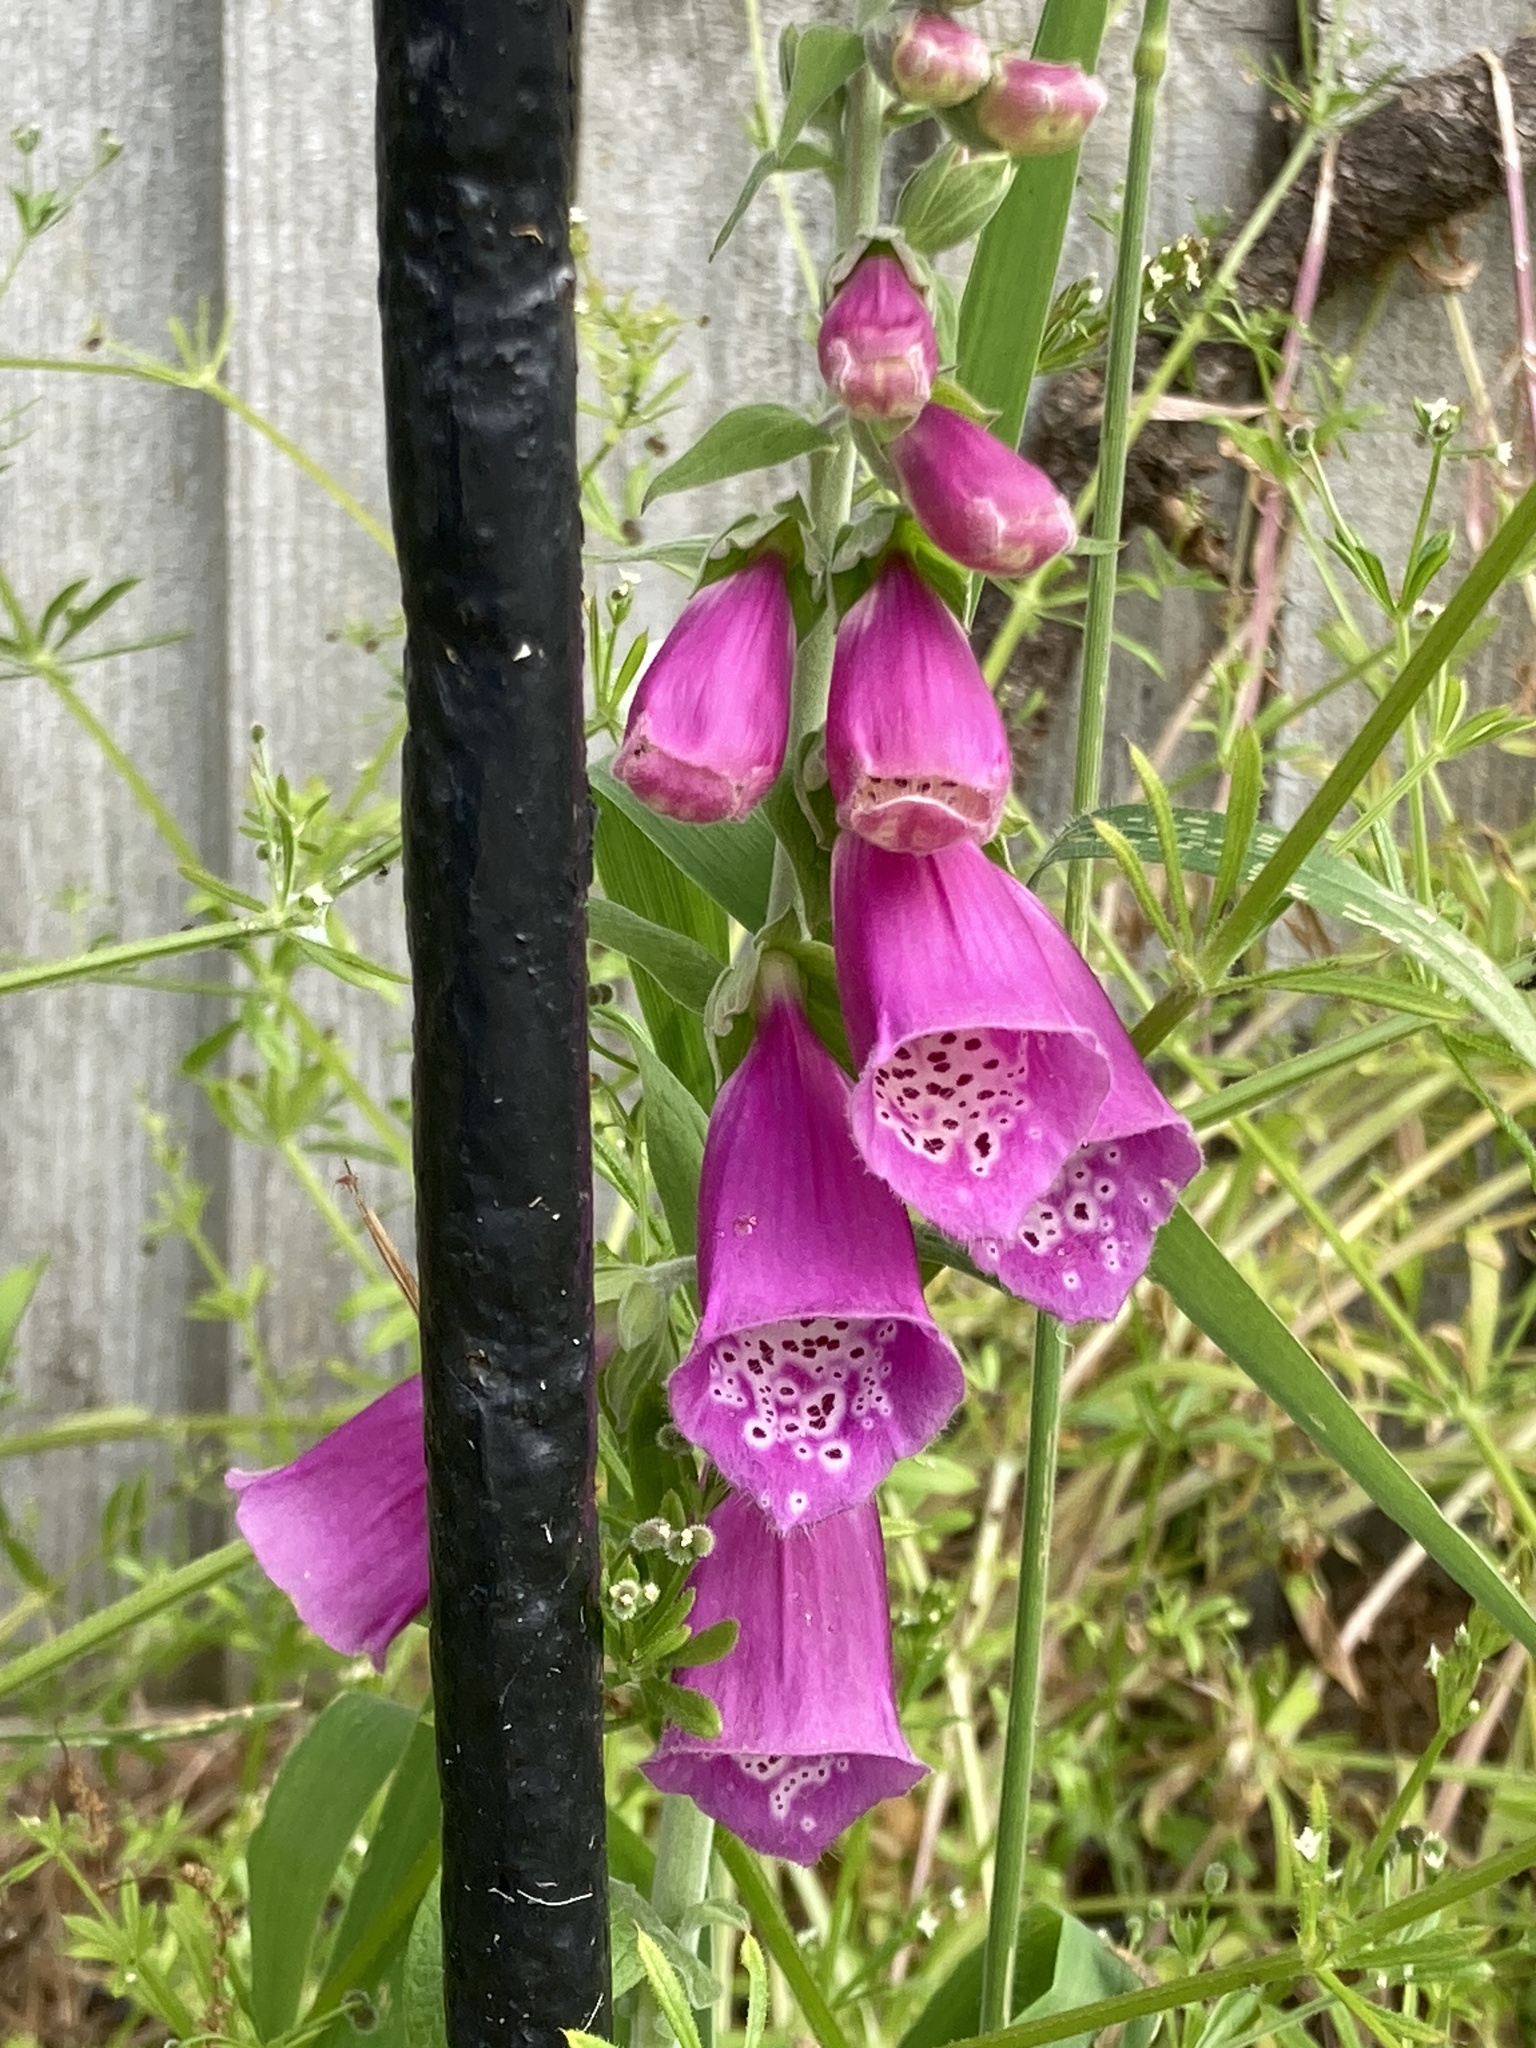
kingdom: Plantae
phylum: Tracheophyta
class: Magnoliopsida
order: Lamiales
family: Plantaginaceae
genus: Digitalis
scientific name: Digitalis purpurea
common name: Foxglove
